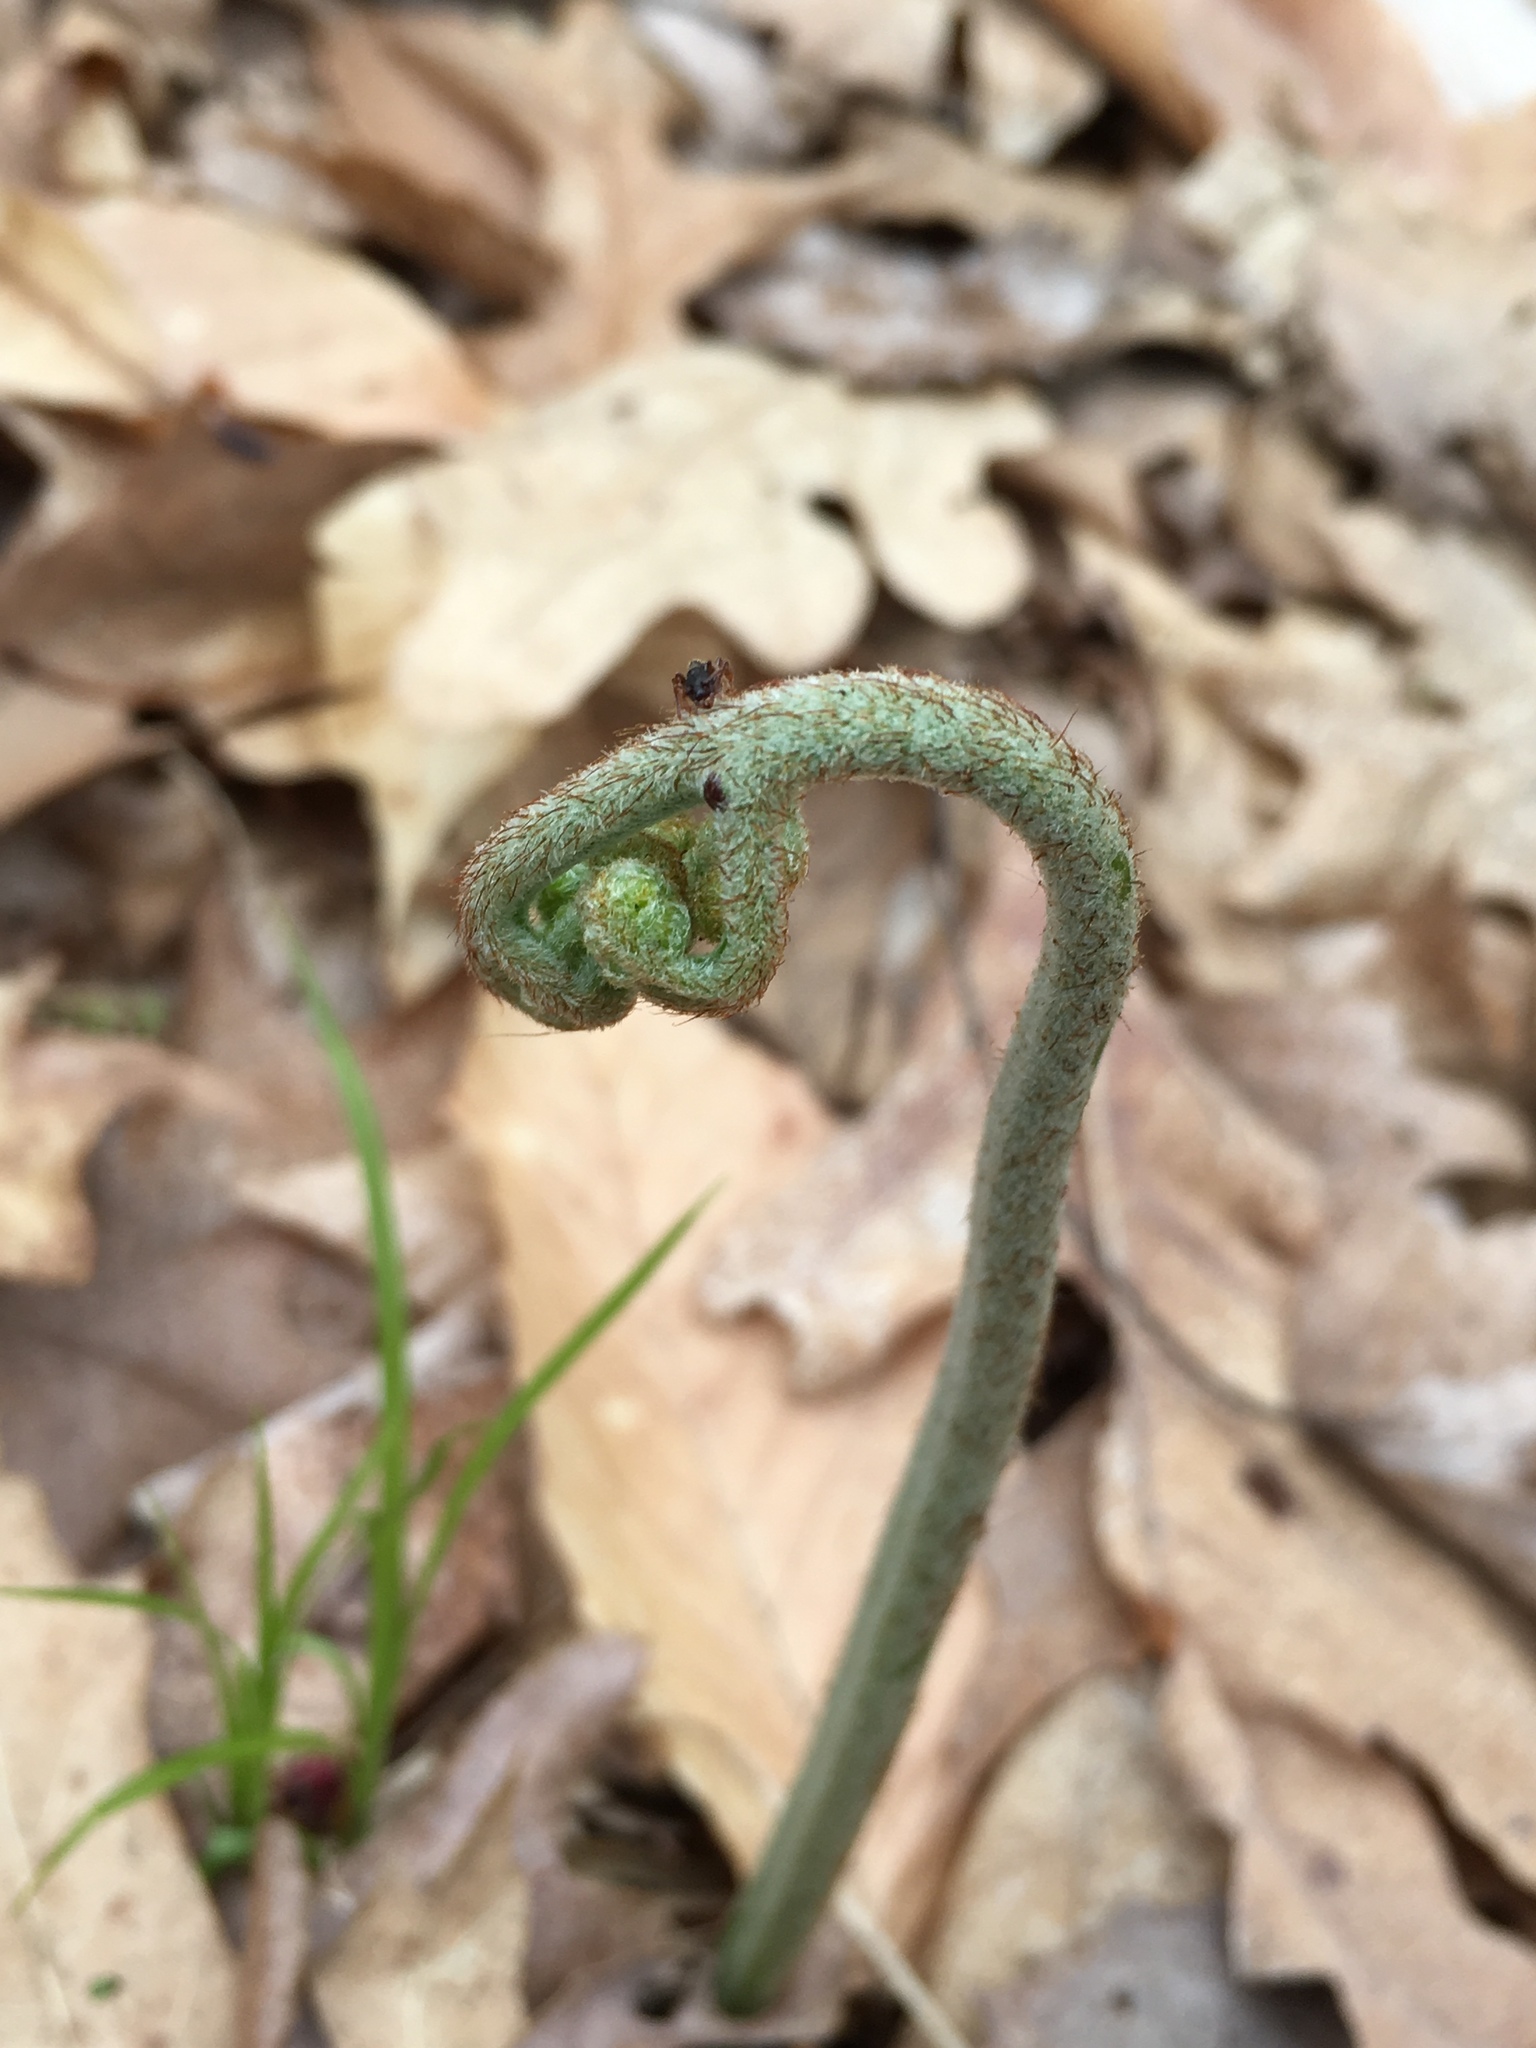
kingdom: Plantae
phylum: Tracheophyta
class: Polypodiopsida
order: Polypodiales
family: Dennstaedtiaceae
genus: Pteridium
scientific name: Pteridium aquilinum
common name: Bracken
